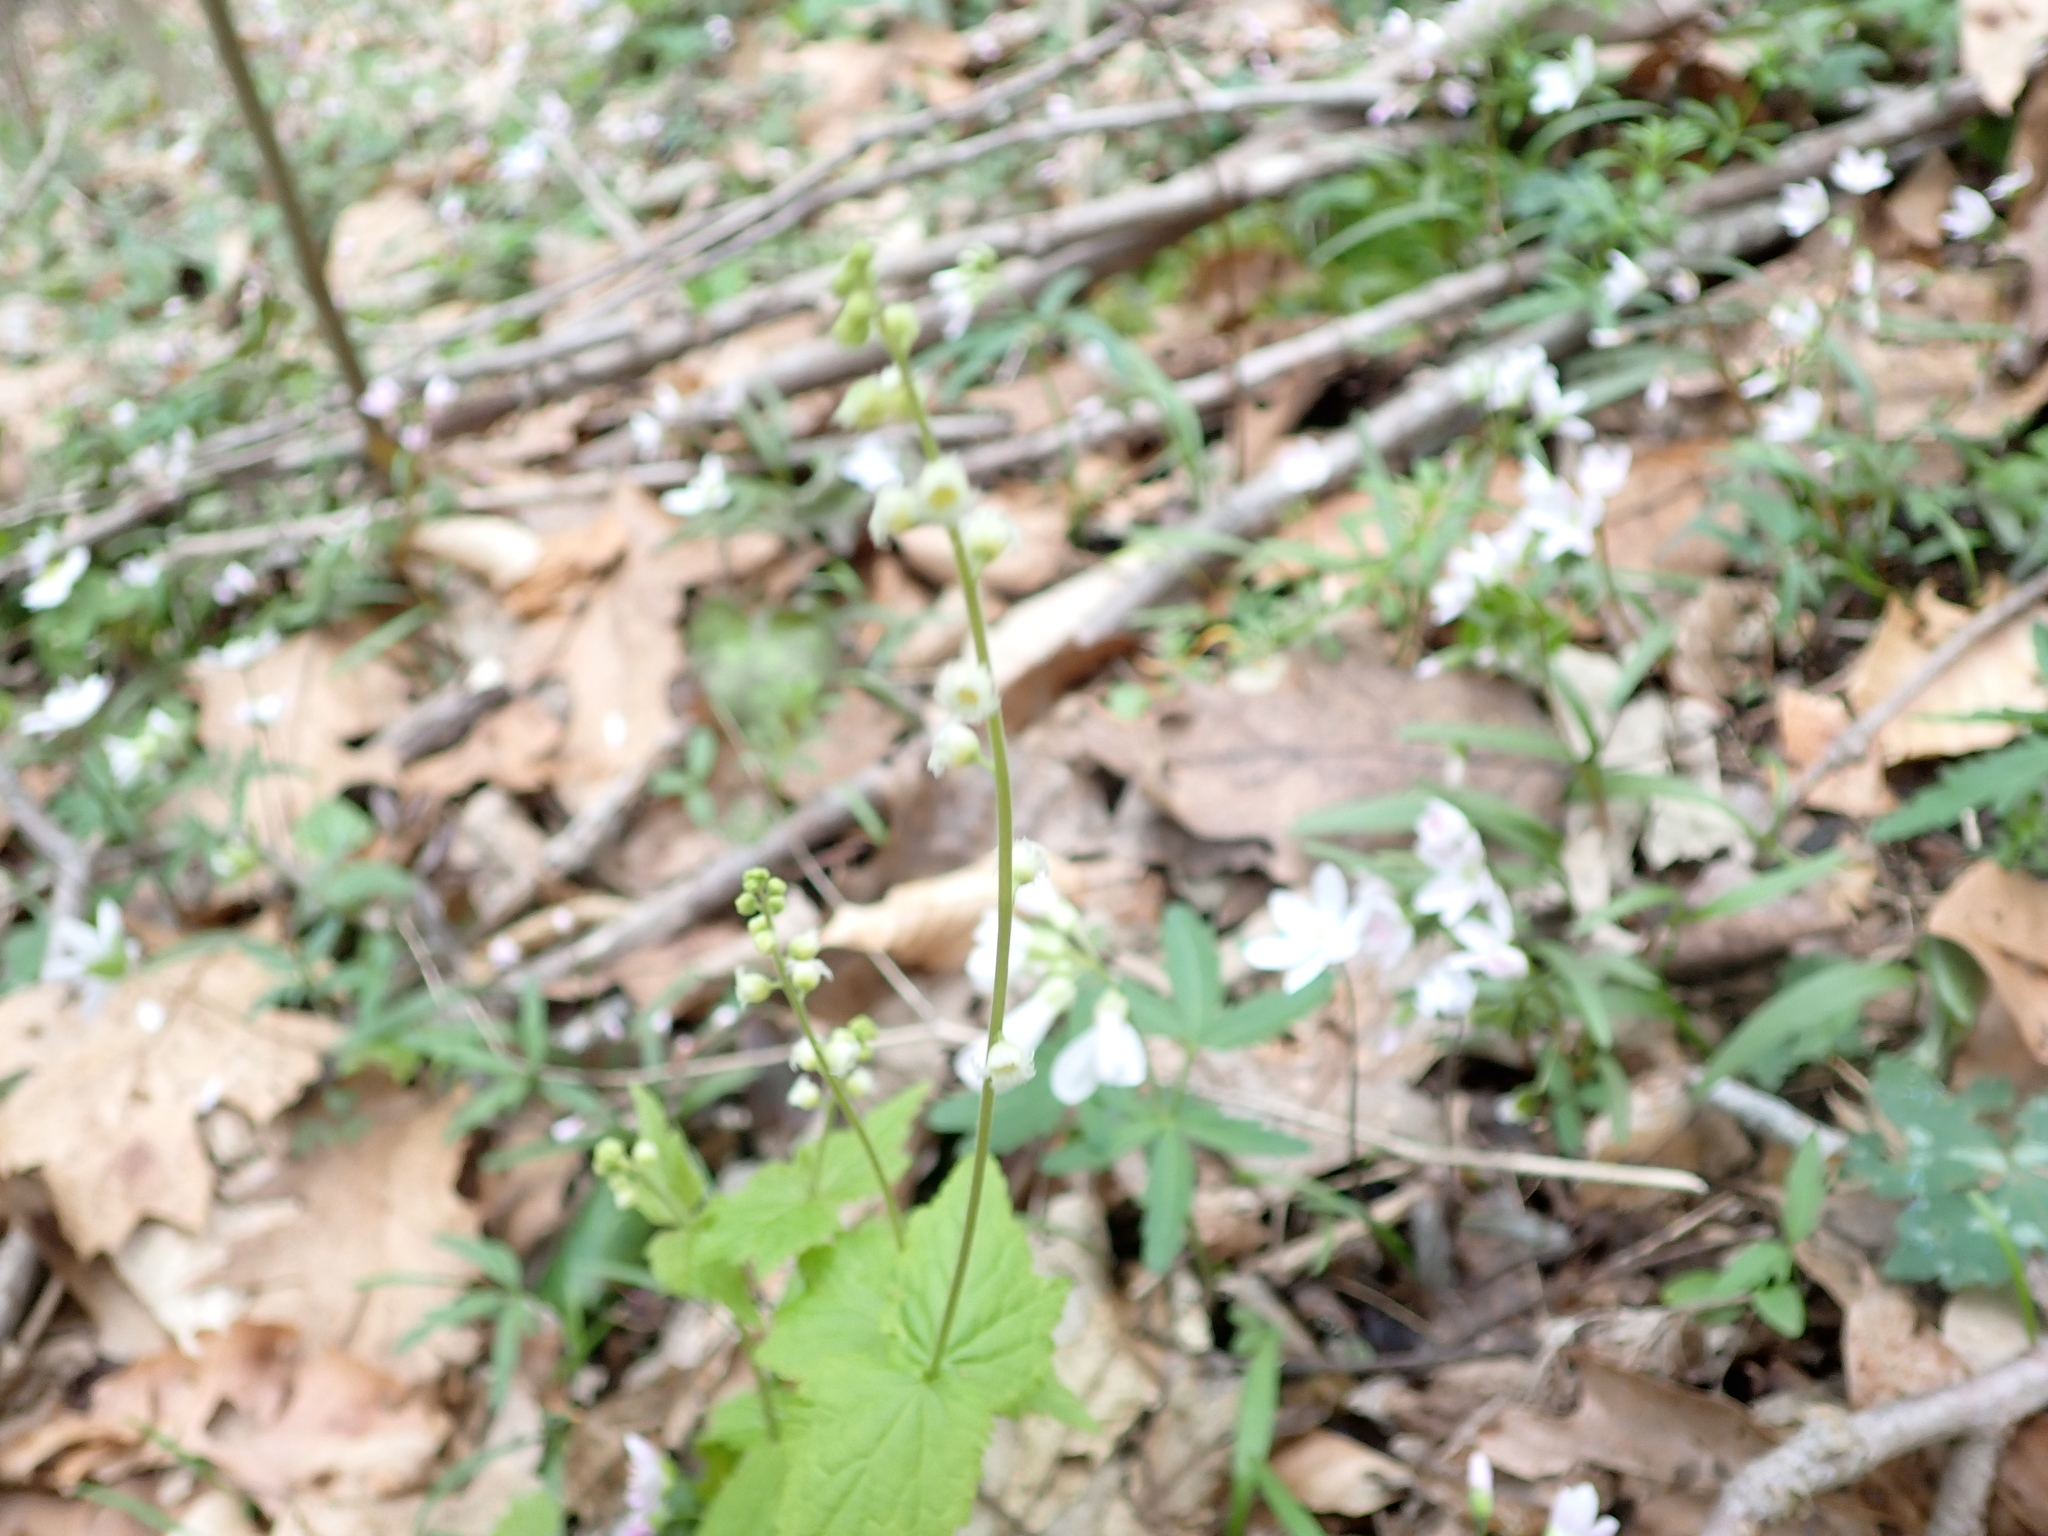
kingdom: Plantae
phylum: Tracheophyta
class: Magnoliopsida
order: Saxifragales
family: Saxifragaceae
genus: Mitella
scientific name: Mitella diphylla
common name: Coolwort
